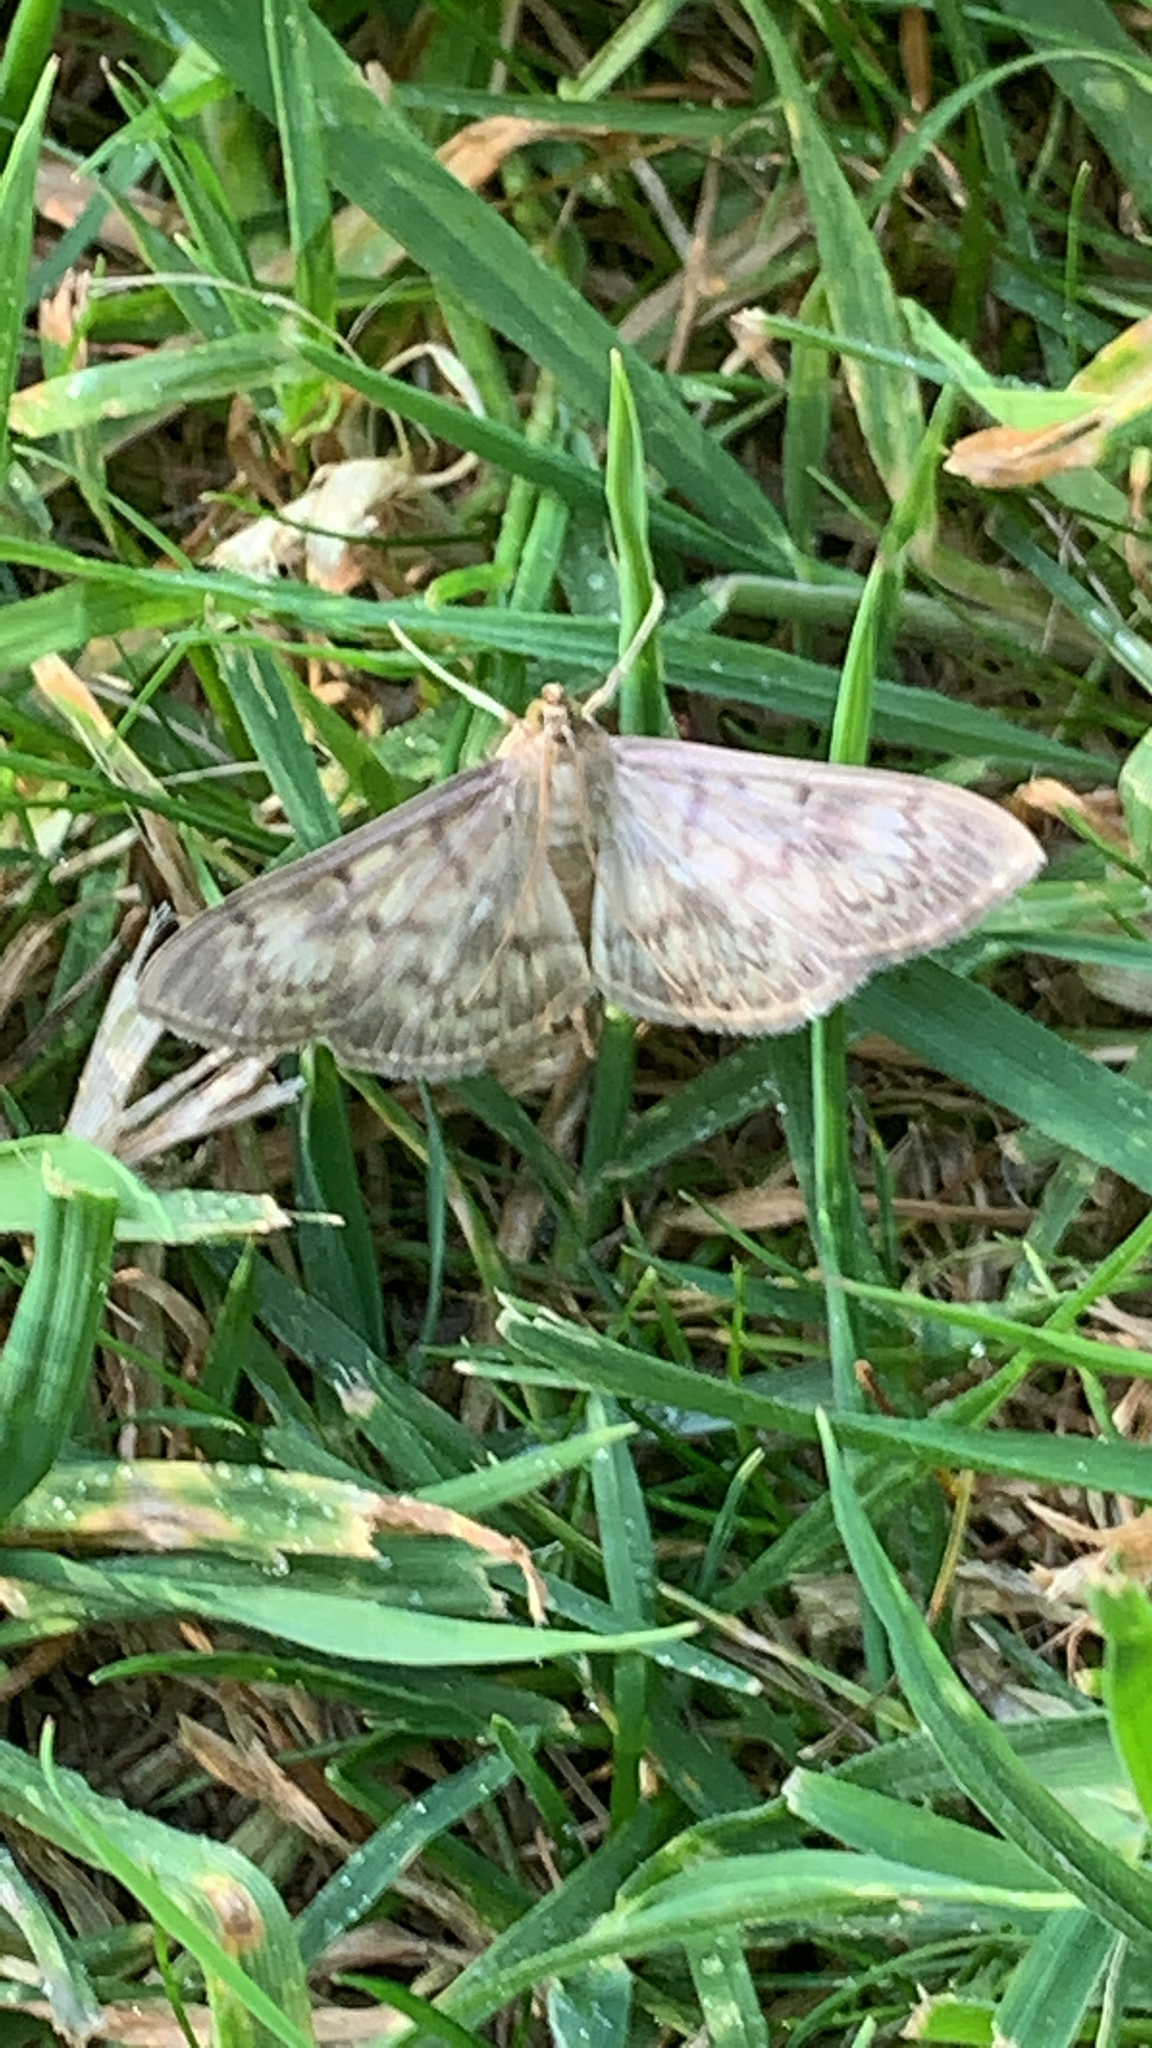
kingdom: Animalia
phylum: Arthropoda
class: Insecta
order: Lepidoptera
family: Crambidae
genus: Patania
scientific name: Patania ruralis
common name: Mother of pearl
